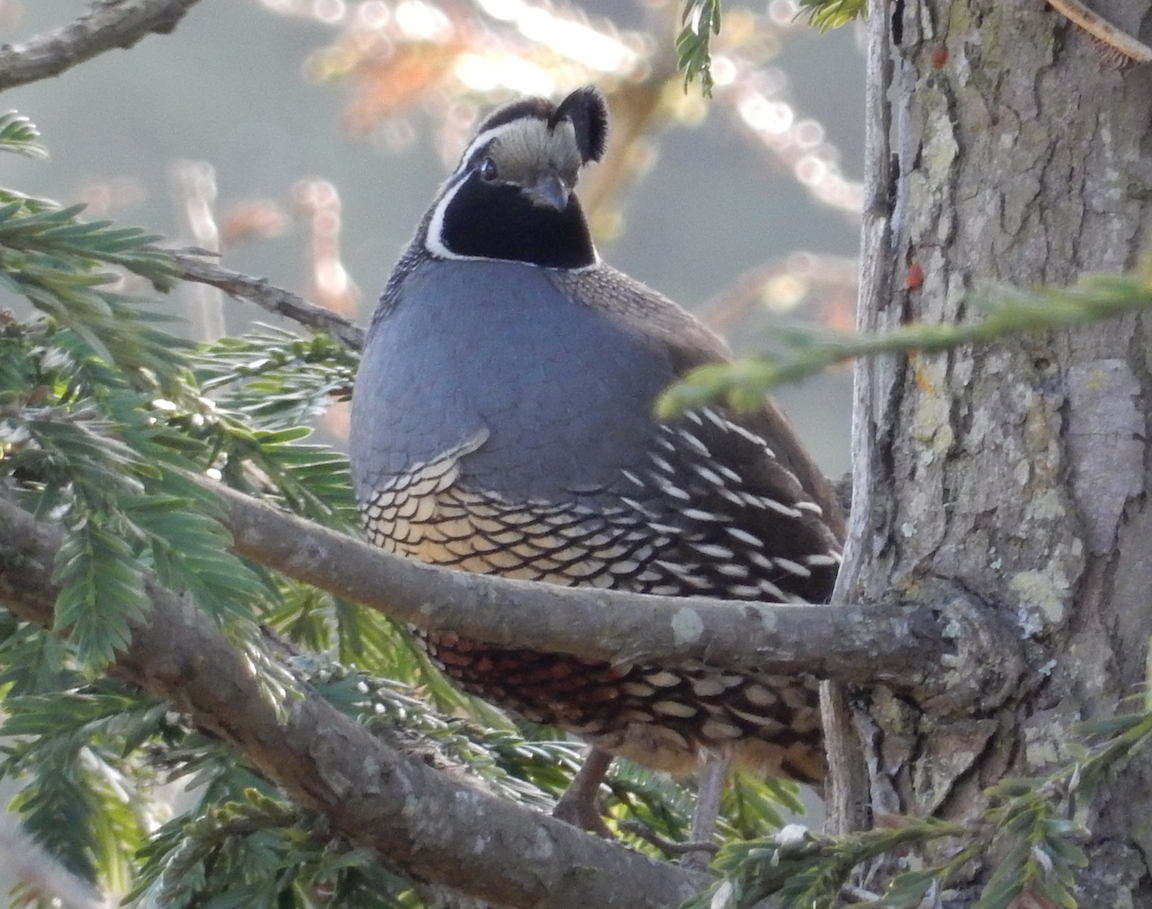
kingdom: Animalia
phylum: Chordata
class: Aves
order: Galliformes
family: Odontophoridae
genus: Callipepla
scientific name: Callipepla californica
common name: California quail
